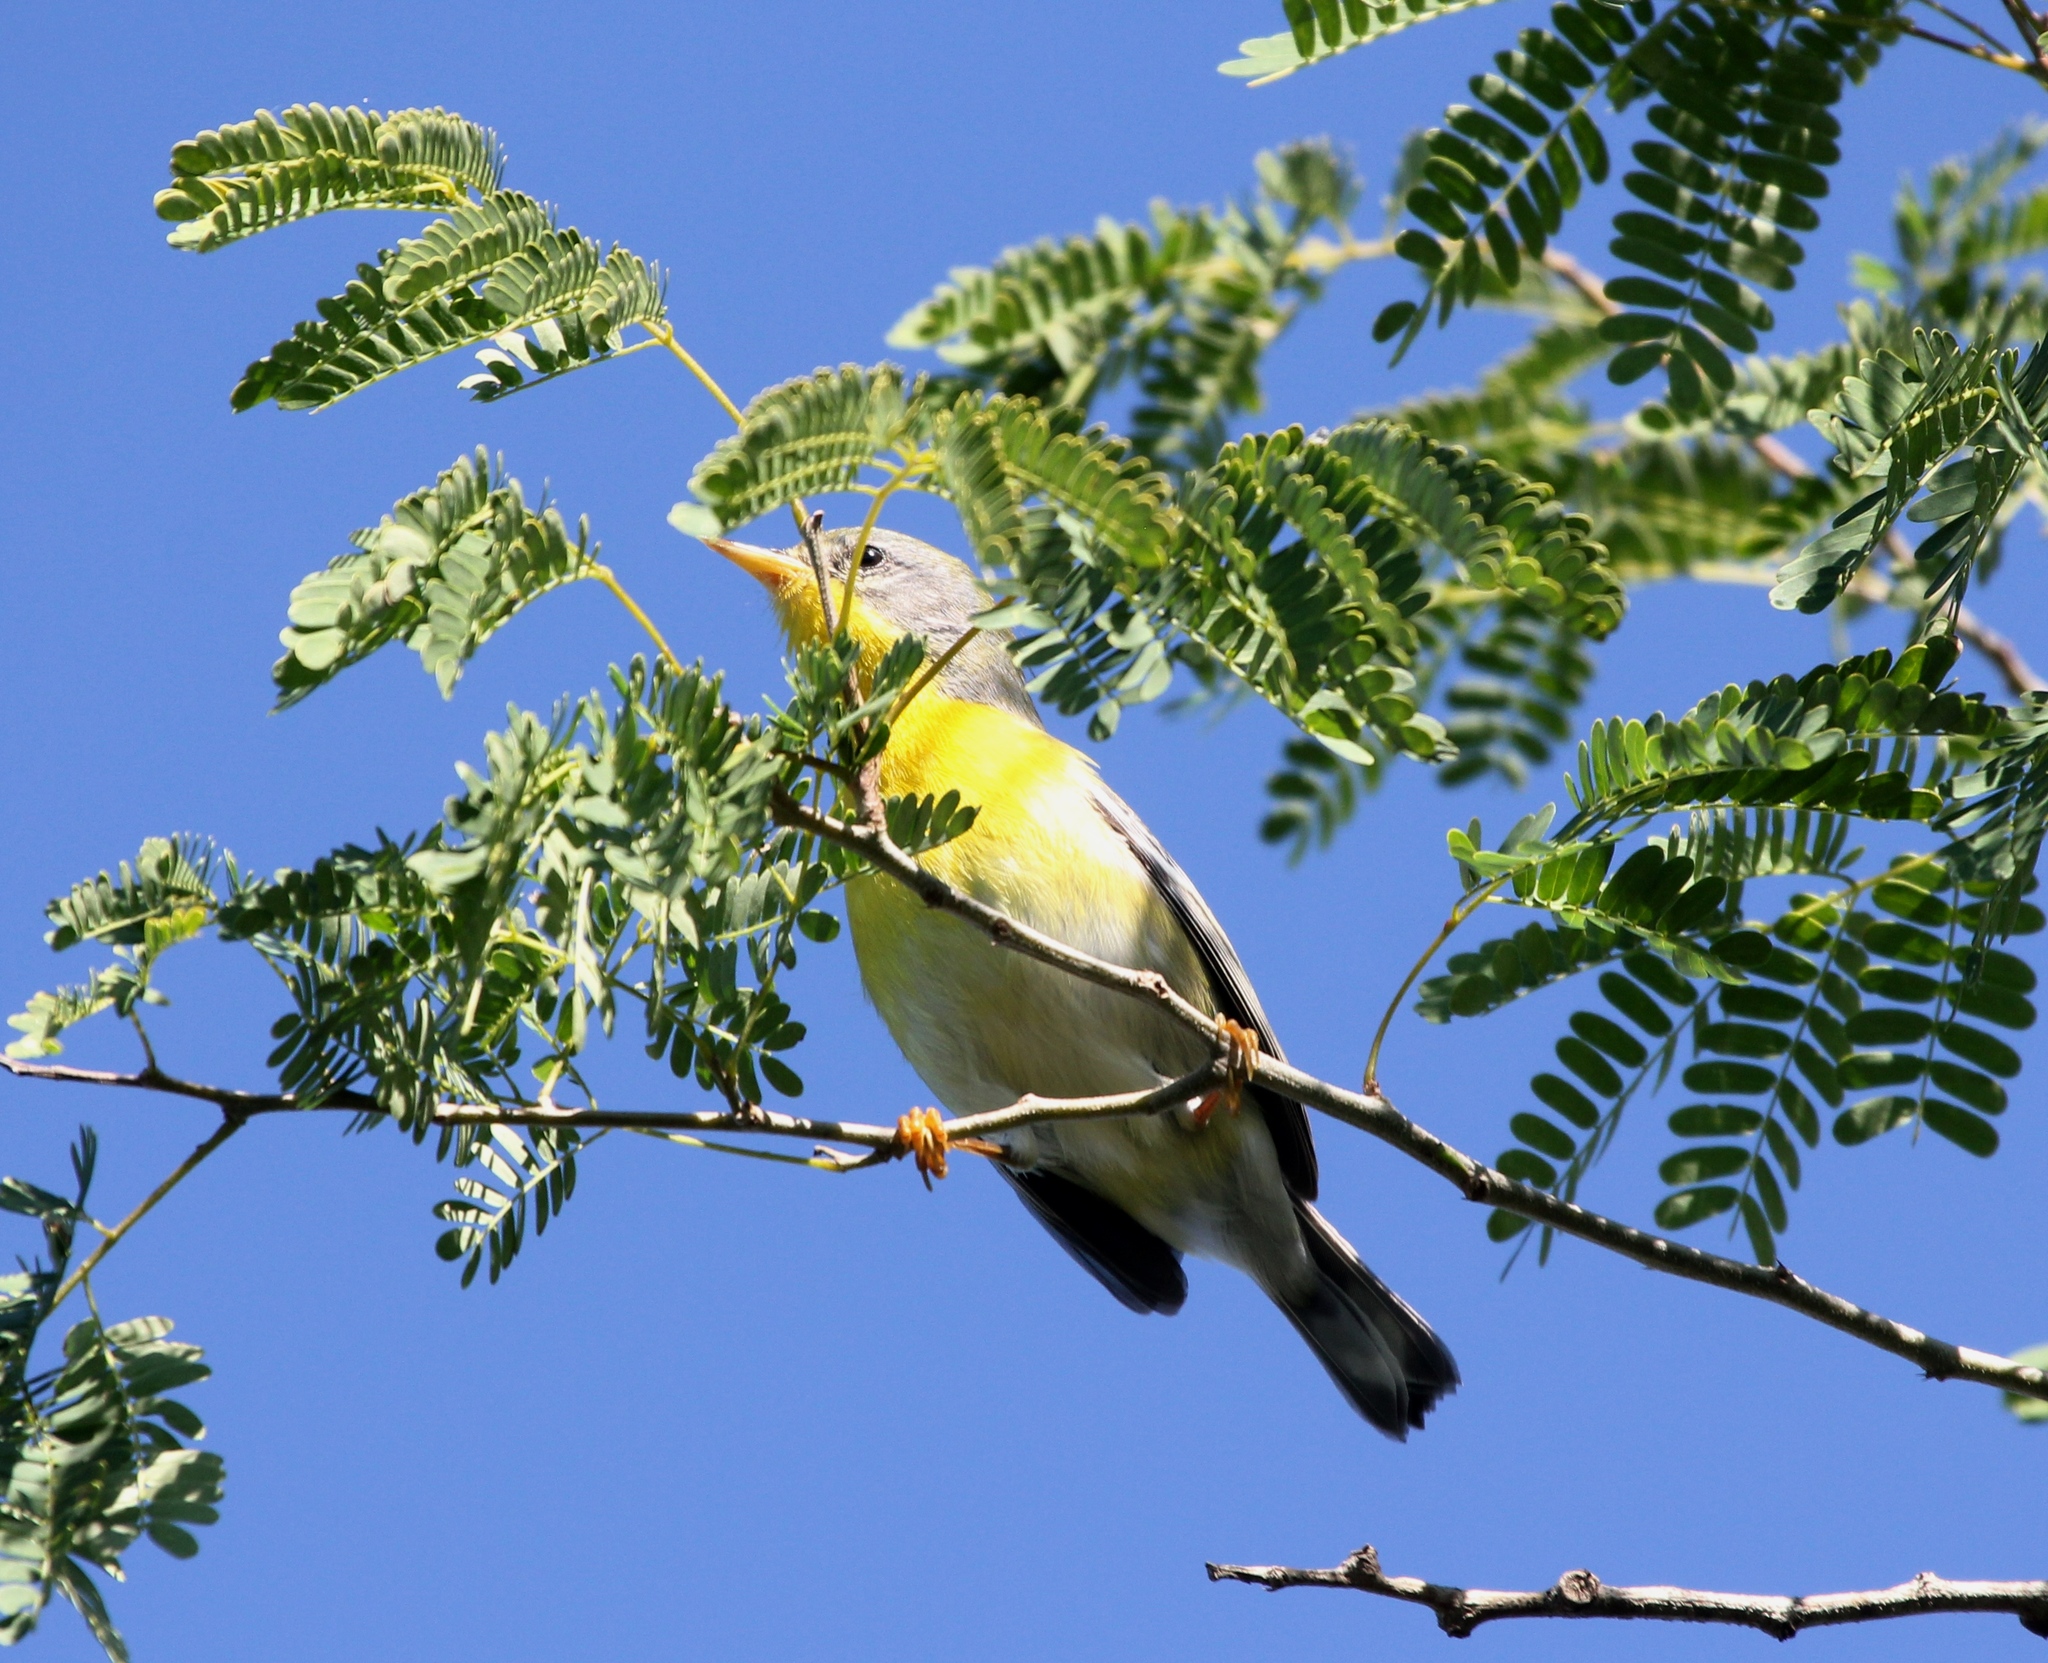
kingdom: Animalia
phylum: Chordata
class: Aves
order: Passeriformes
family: Parulidae
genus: Setophaga
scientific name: Setophaga pitiayumi
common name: Tropical parula
